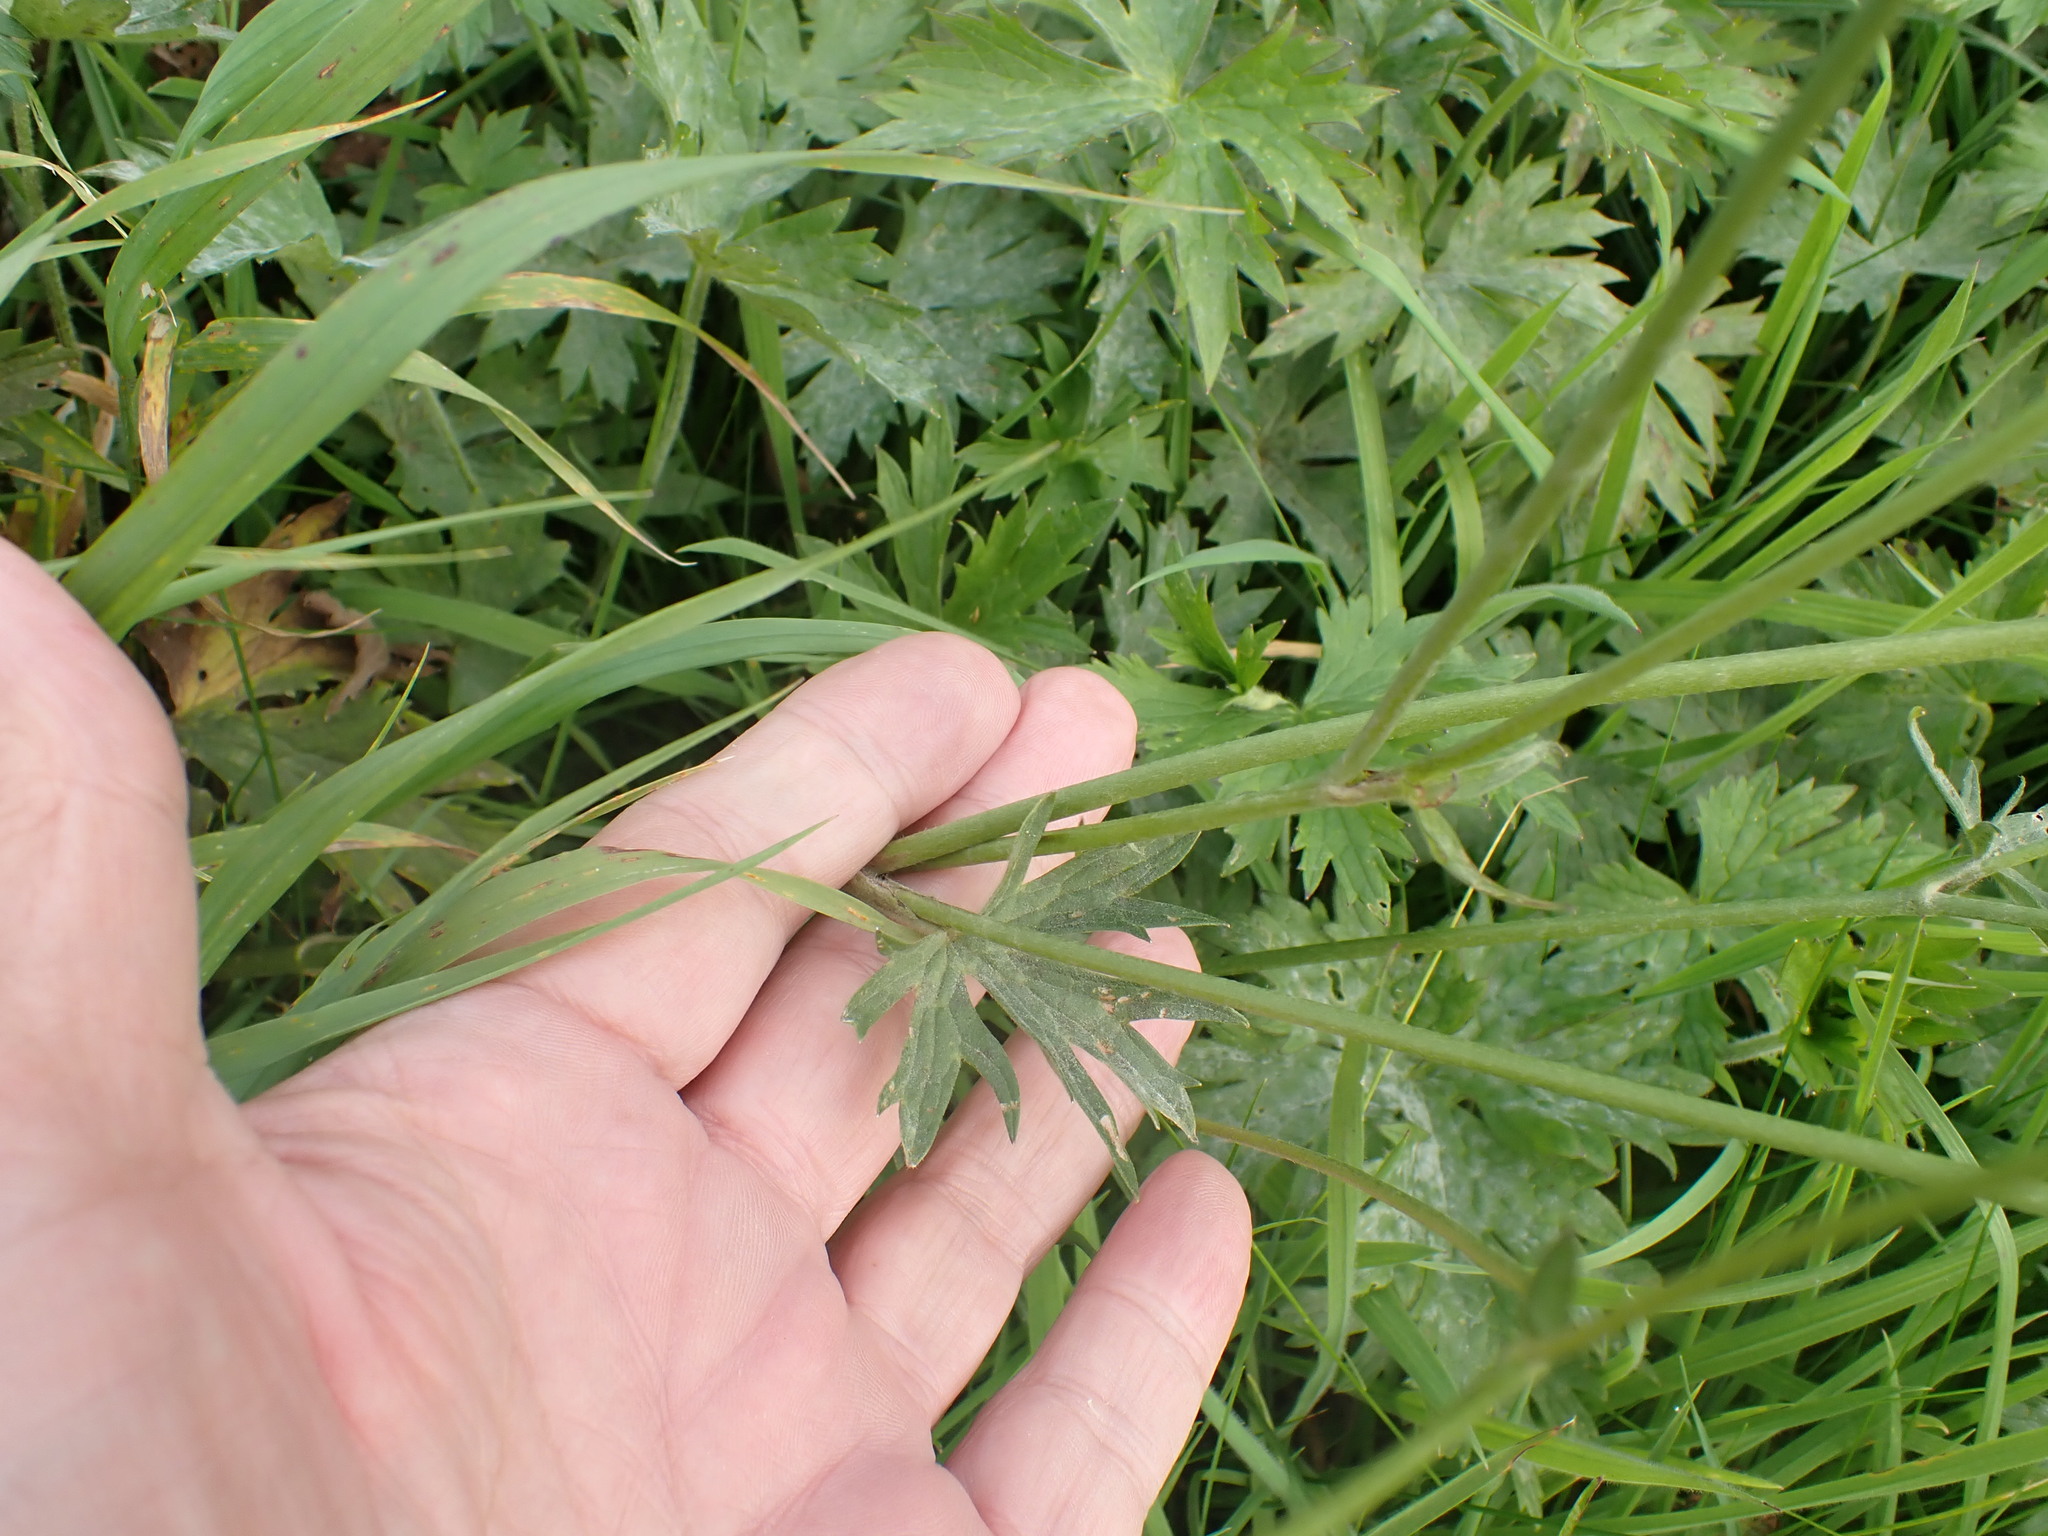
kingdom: Plantae
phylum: Tracheophyta
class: Magnoliopsida
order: Ranunculales
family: Ranunculaceae
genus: Ranunculus
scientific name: Ranunculus acris
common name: Meadow buttercup
